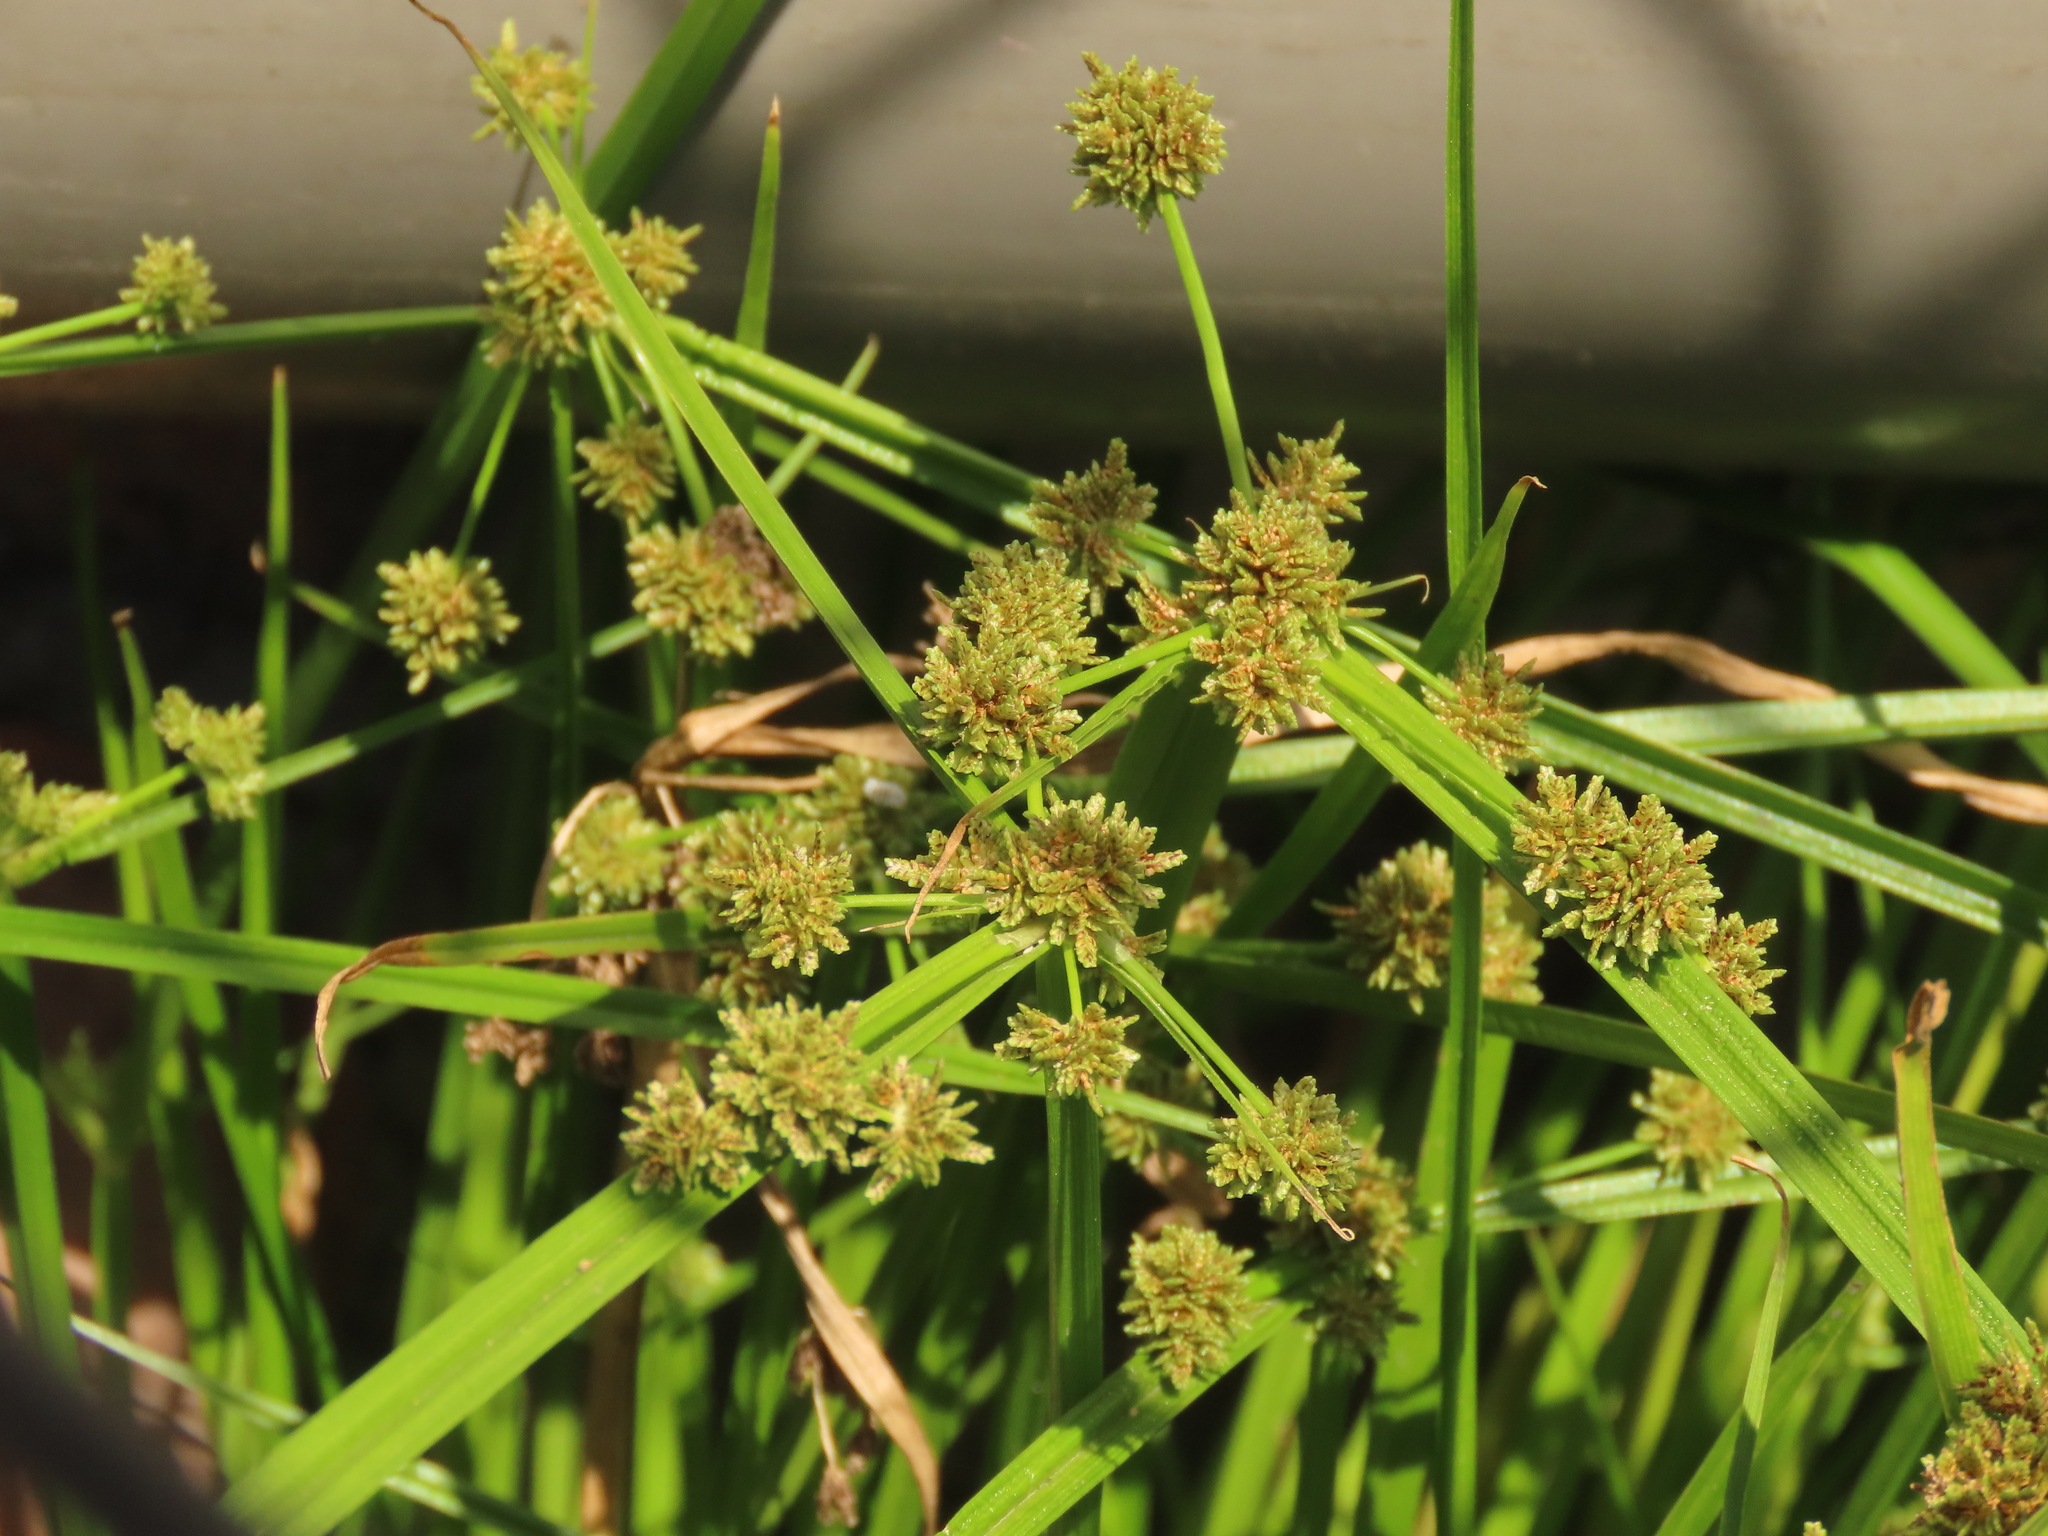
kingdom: Plantae
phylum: Tracheophyta
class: Liliopsida
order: Poales
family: Cyperaceae
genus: Cyperus
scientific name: Cyperus difformis
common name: Variable flatsedge
